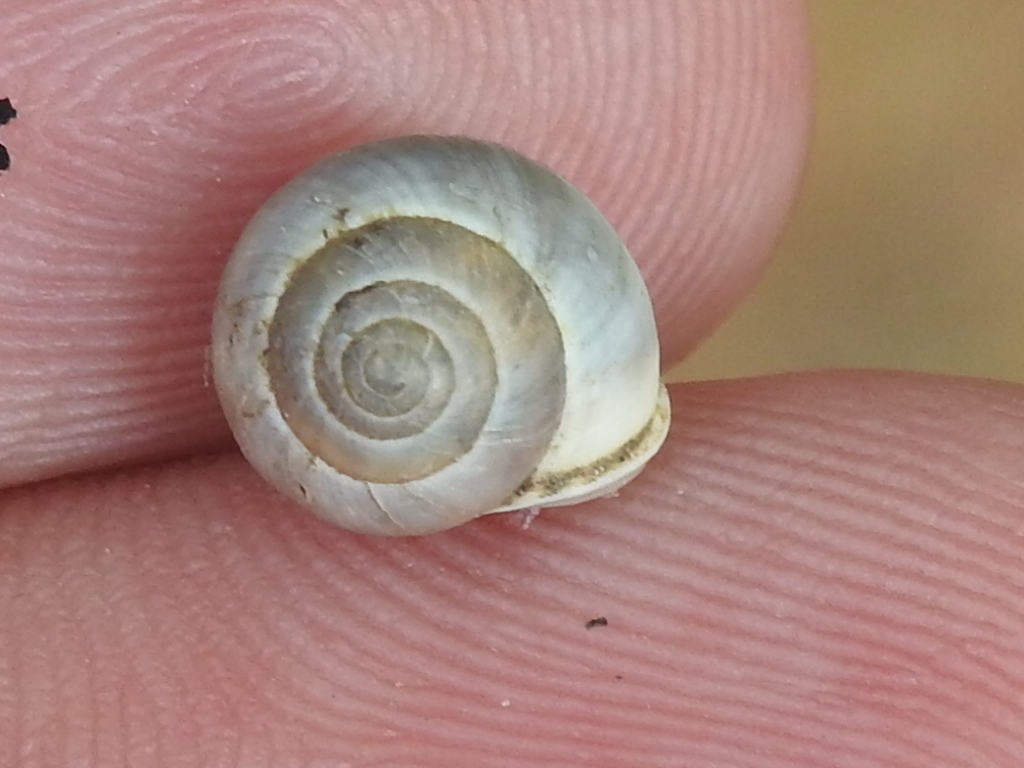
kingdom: Animalia
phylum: Mollusca
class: Gastropoda
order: Cycloneritida
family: Helicinidae
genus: Helicina
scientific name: Helicina orbiculata
